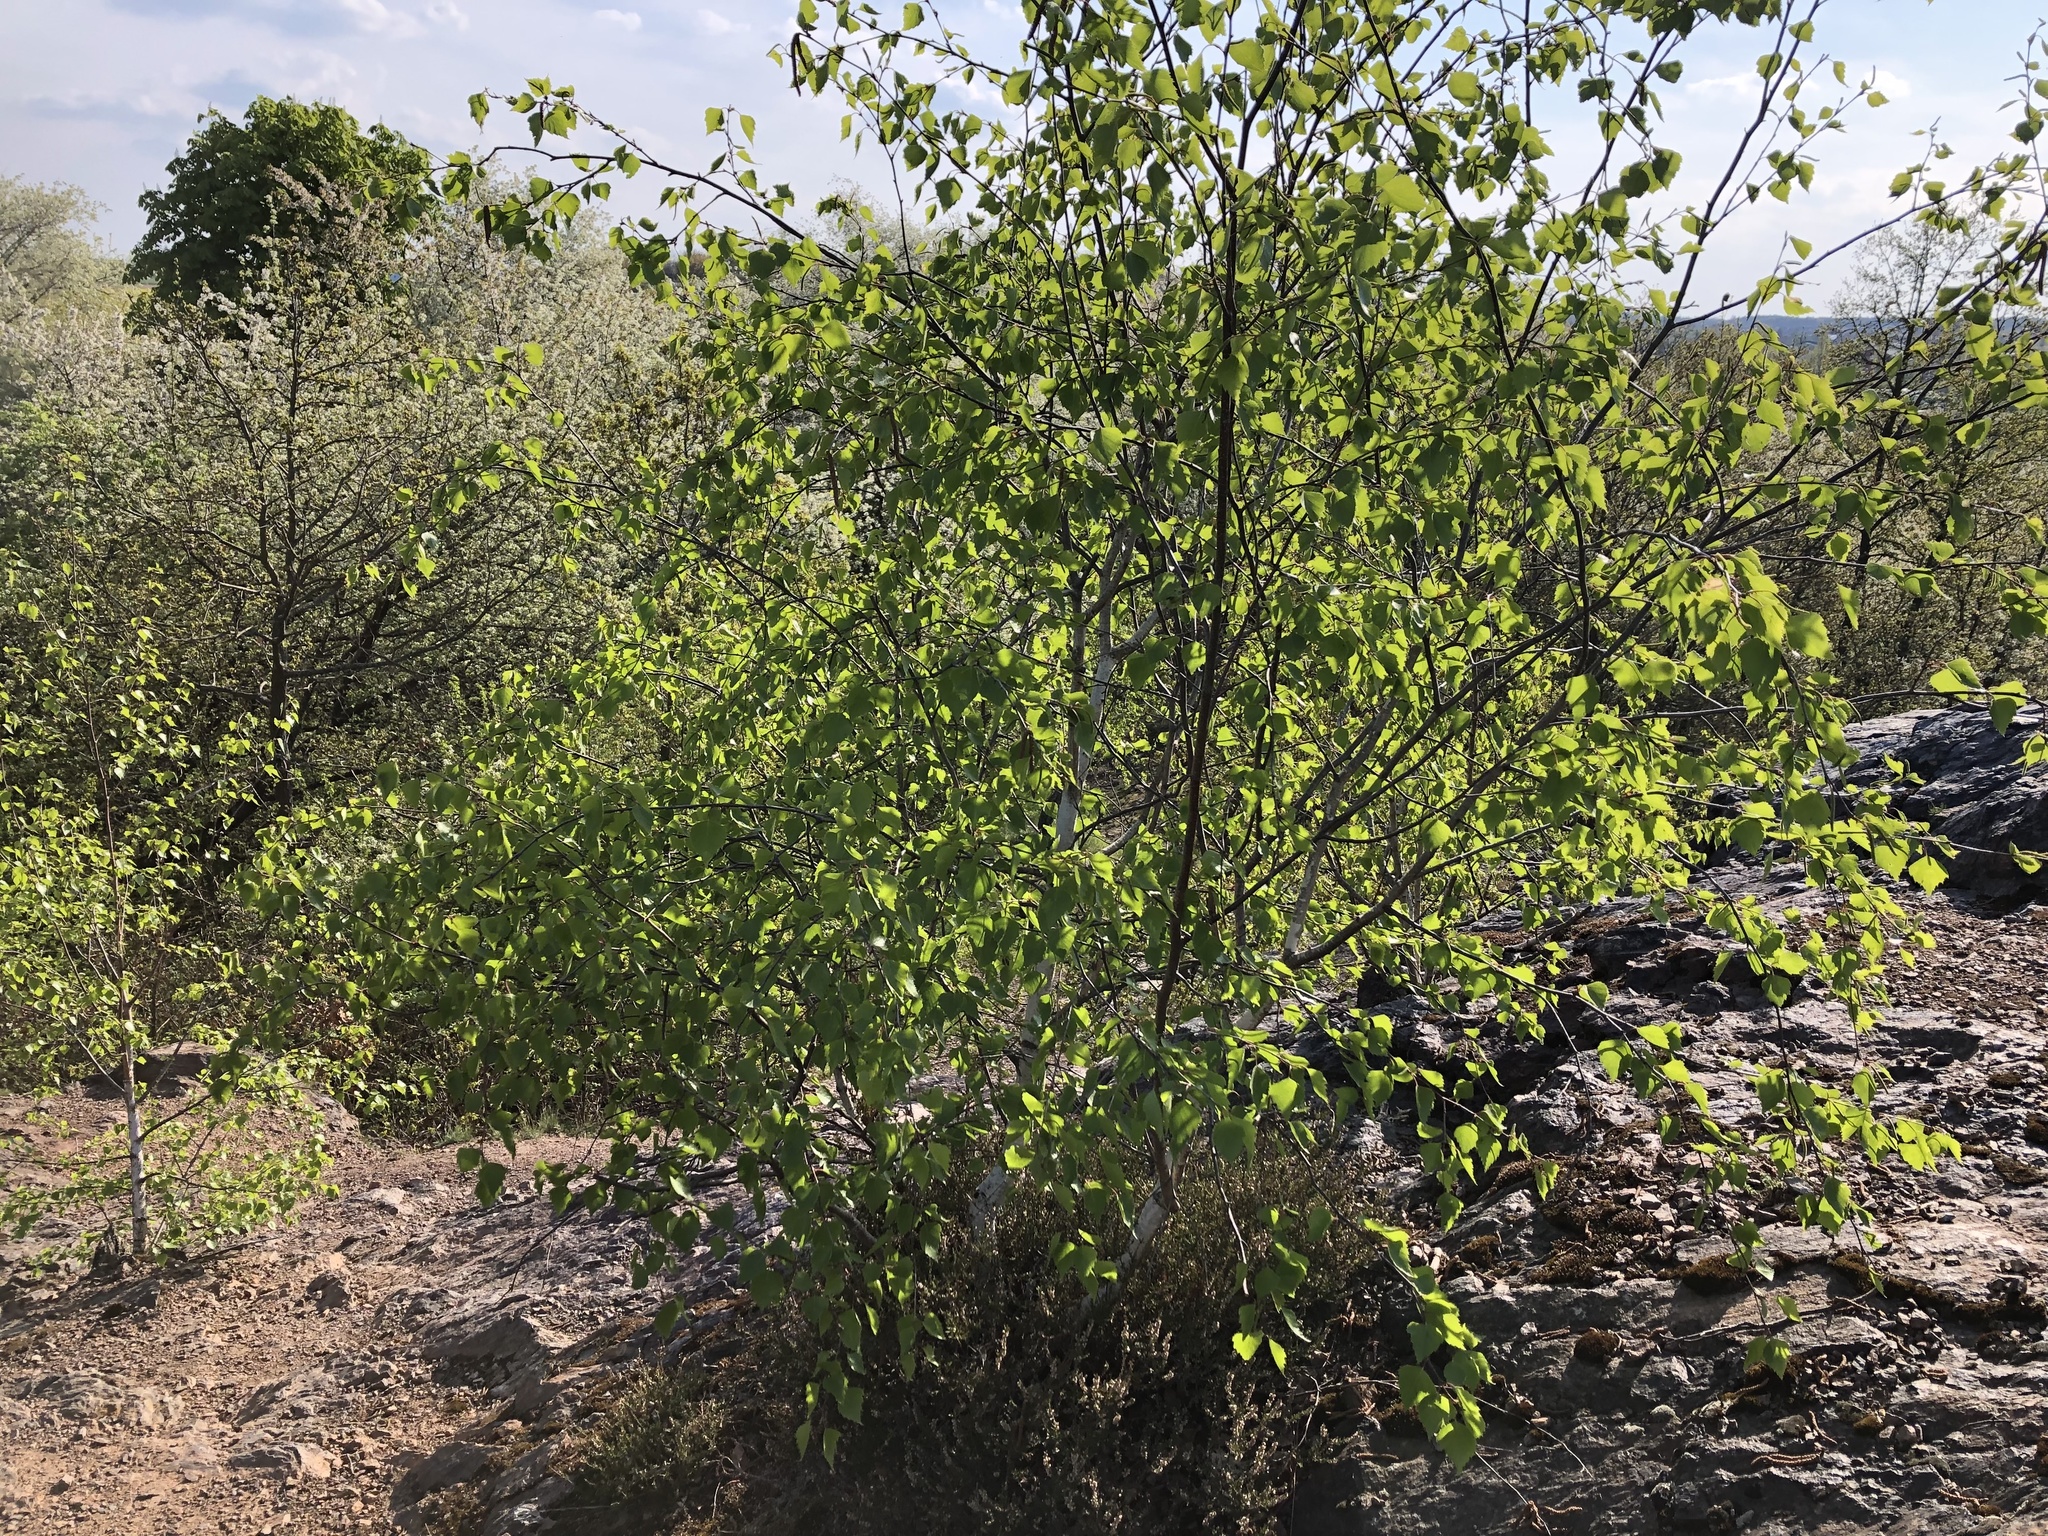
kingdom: Plantae
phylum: Tracheophyta
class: Magnoliopsida
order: Fagales
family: Betulaceae
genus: Betula
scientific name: Betula pendula
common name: Silver birch
